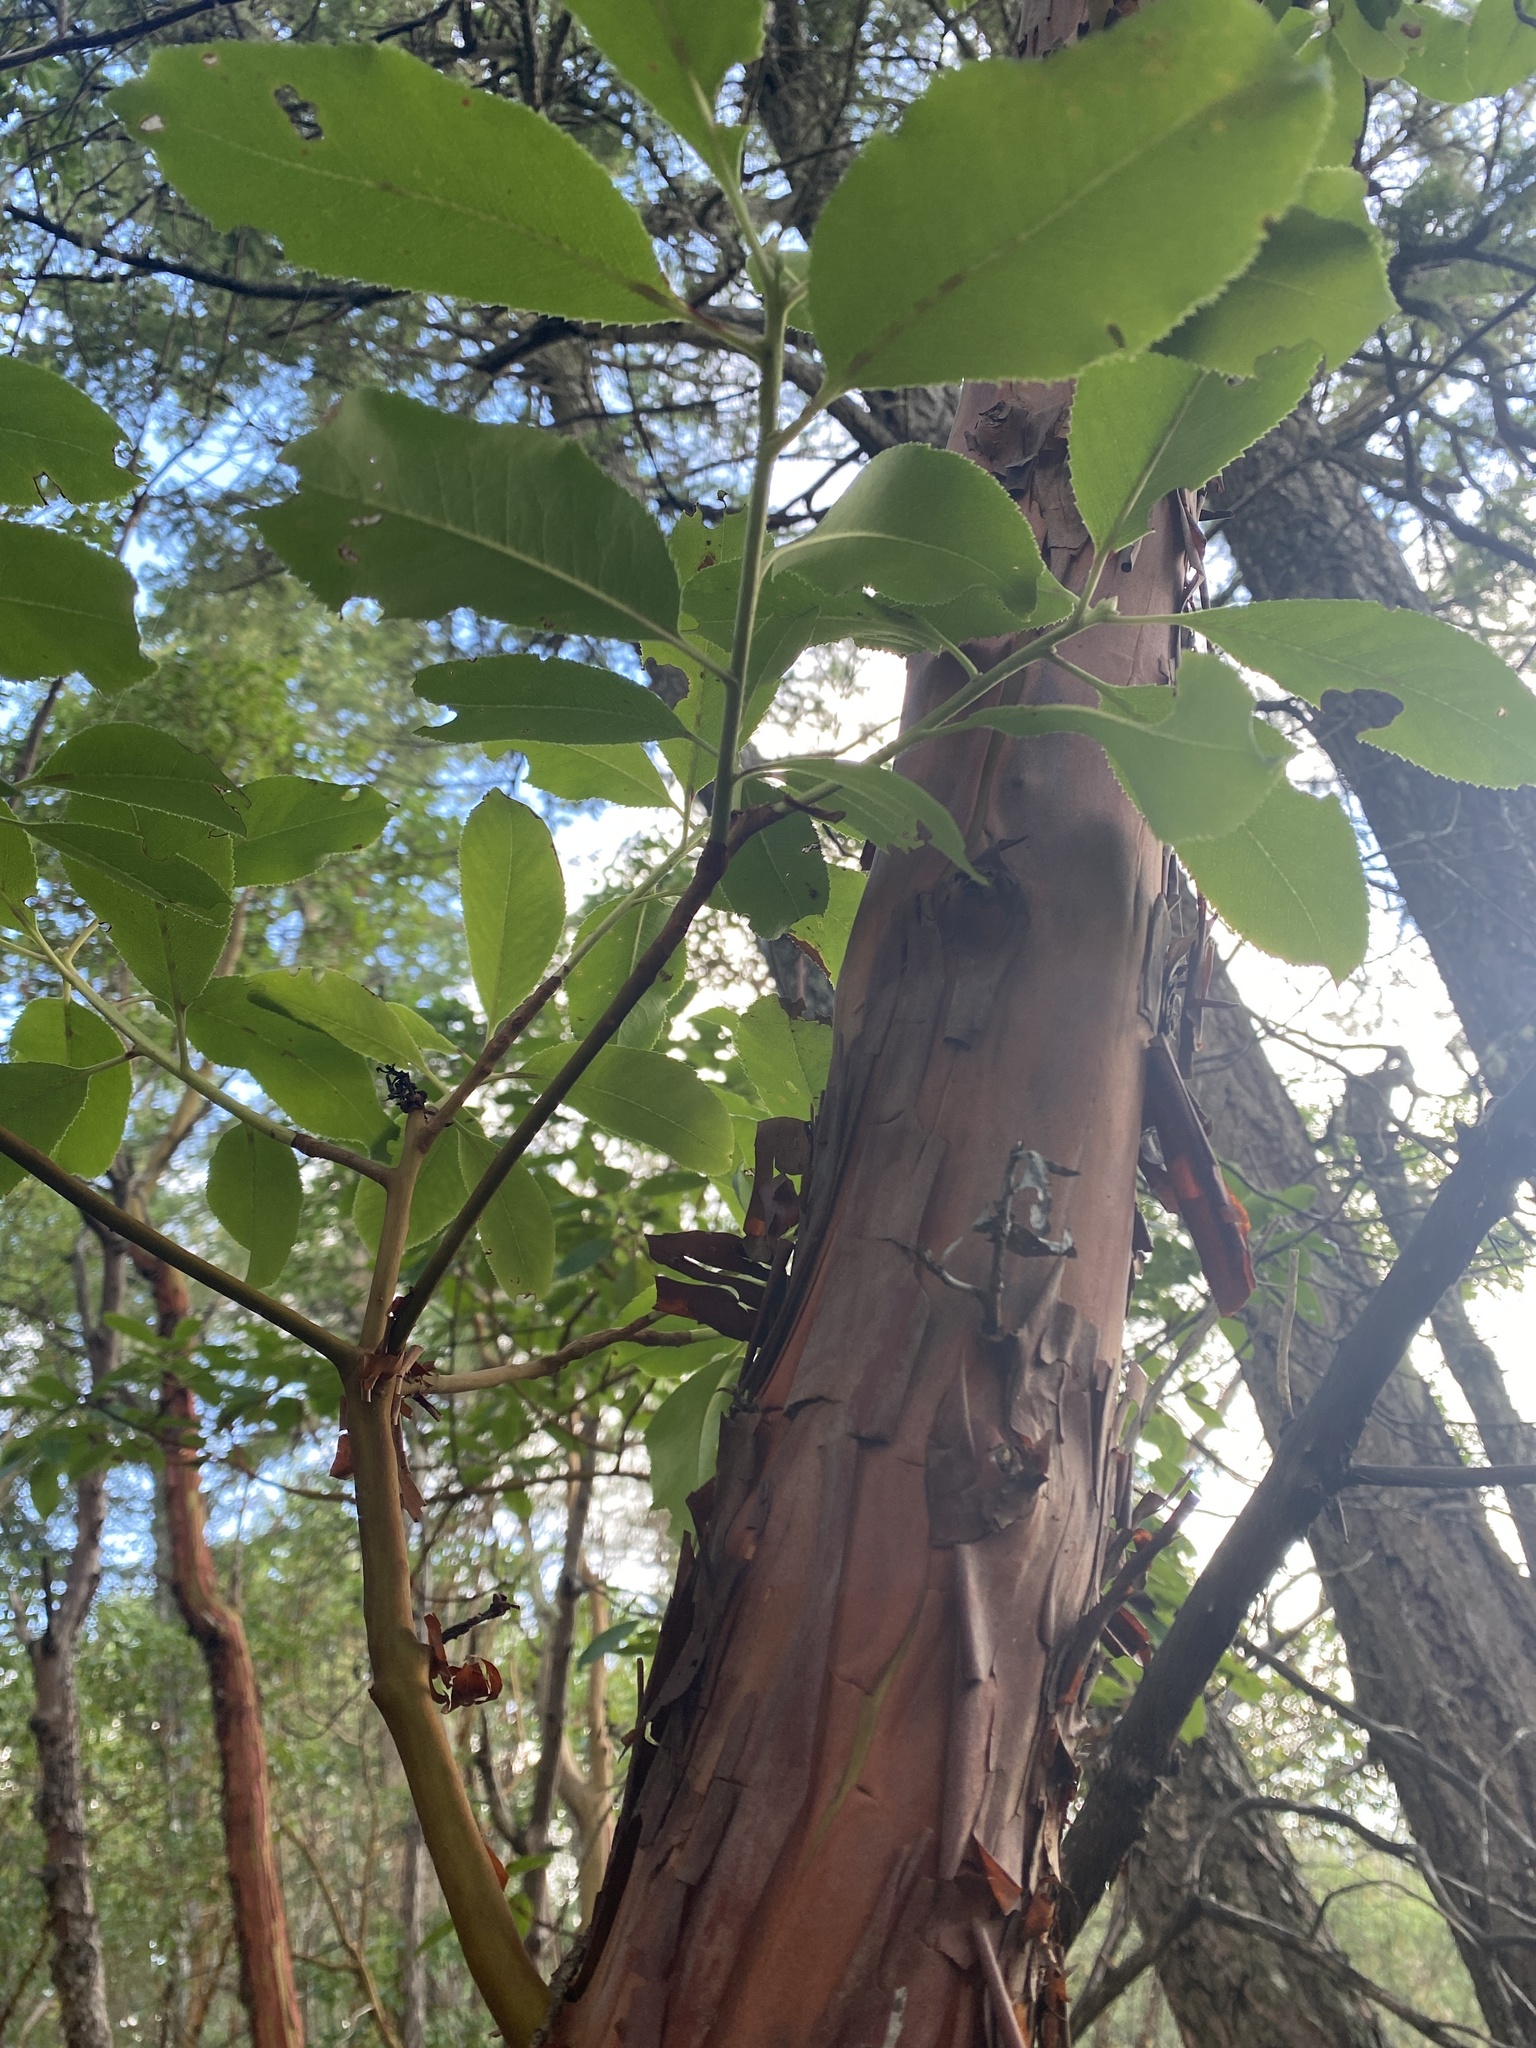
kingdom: Plantae
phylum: Tracheophyta
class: Magnoliopsida
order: Ericales
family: Ericaceae
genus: Arbutus
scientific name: Arbutus menziesii
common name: Pacific madrone
